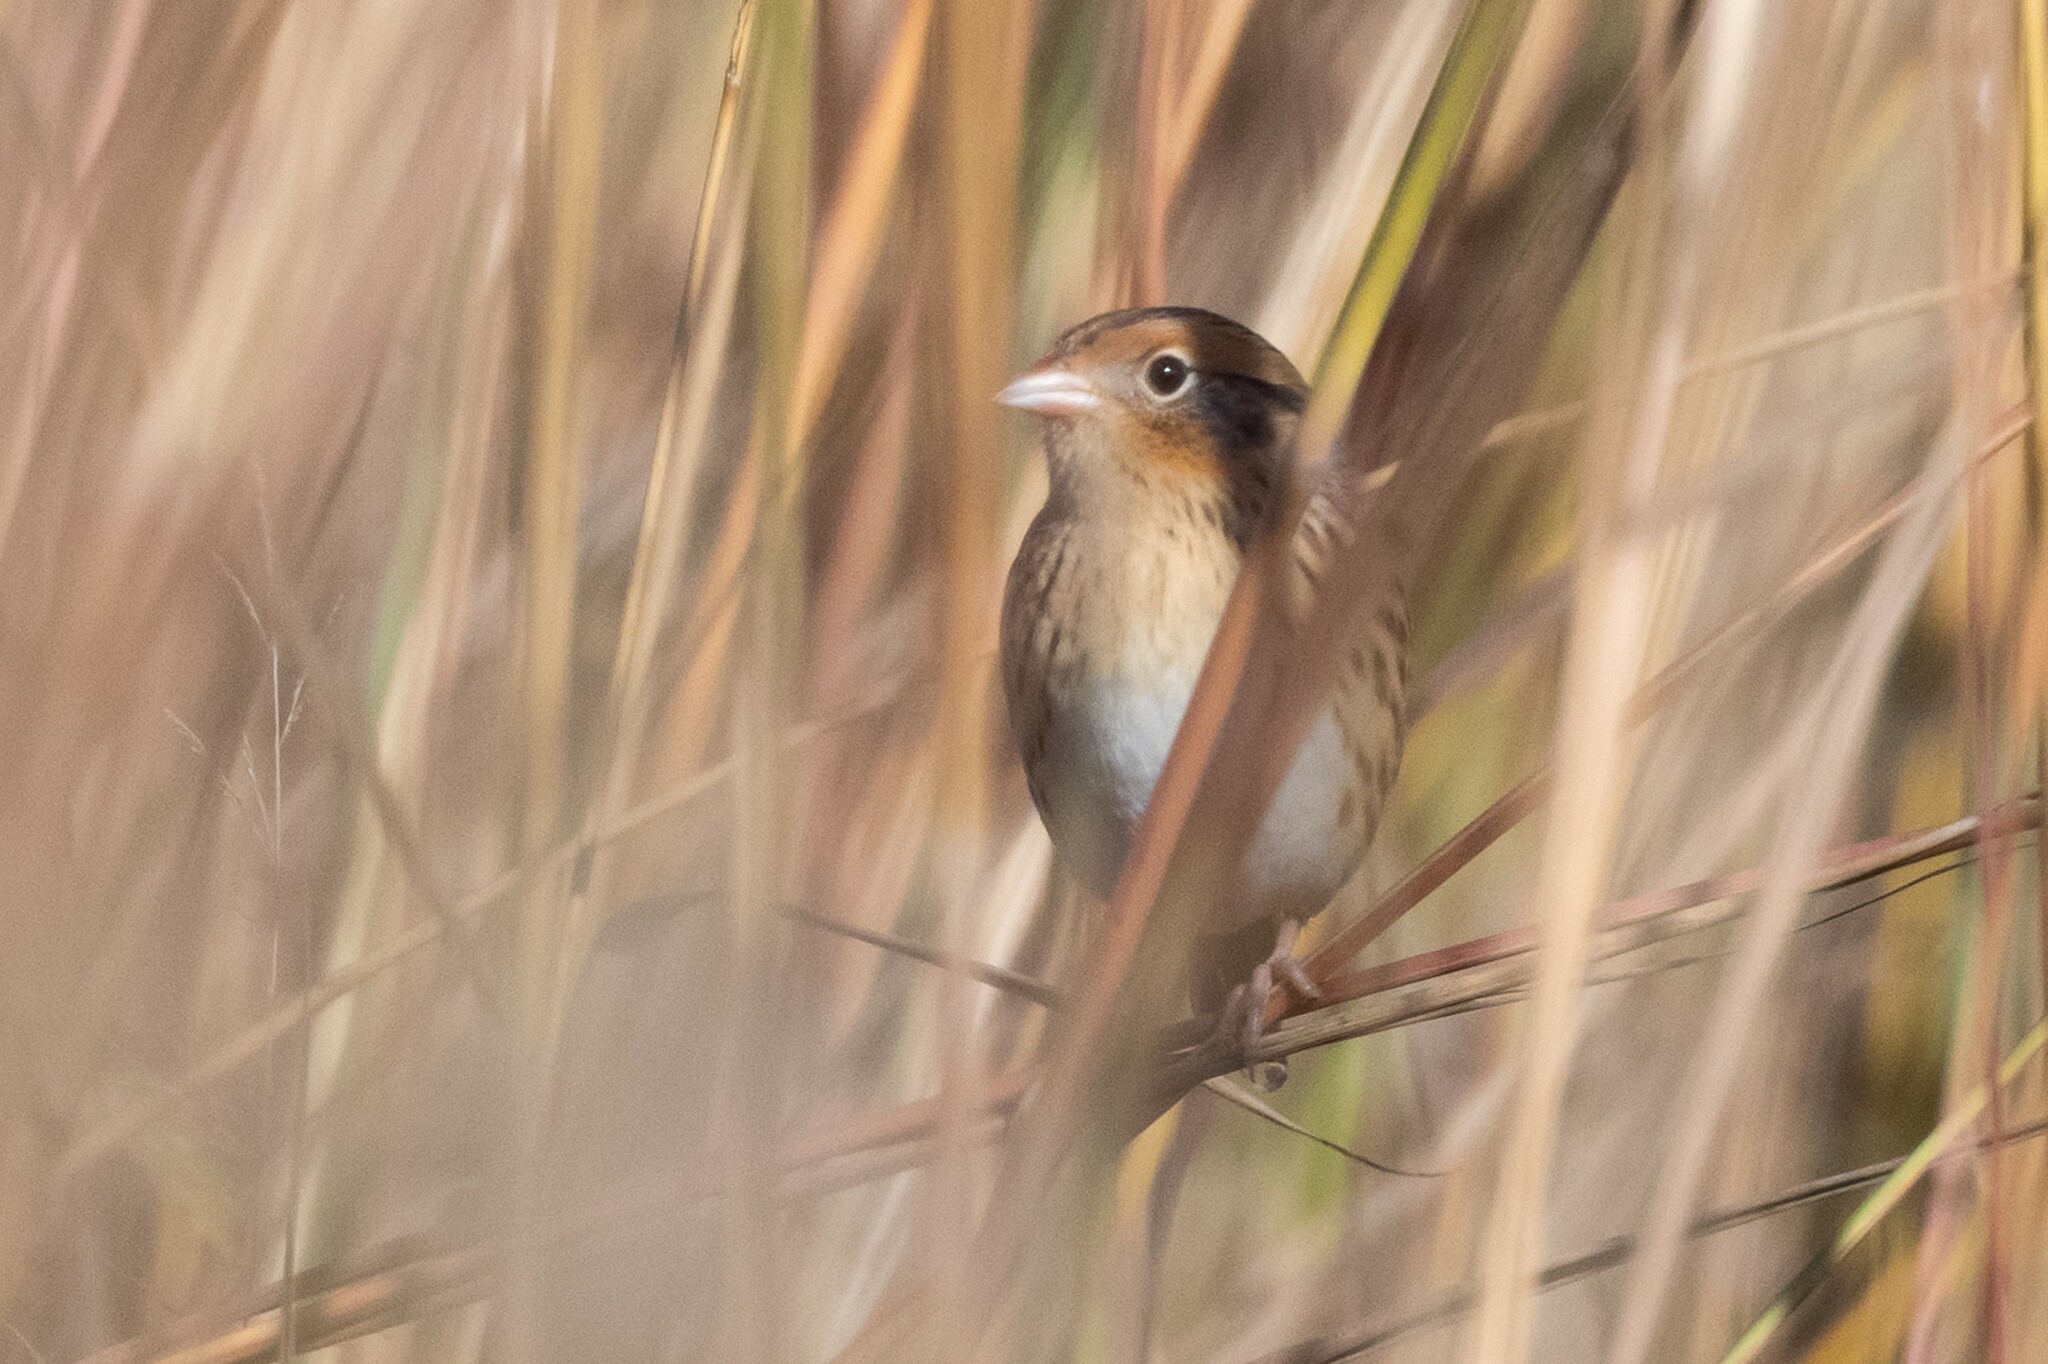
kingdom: Animalia
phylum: Chordata
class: Aves
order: Passeriformes
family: Passerellidae
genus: Ammospiza
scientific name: Ammospiza leconteii
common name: Le conte's sparrow
